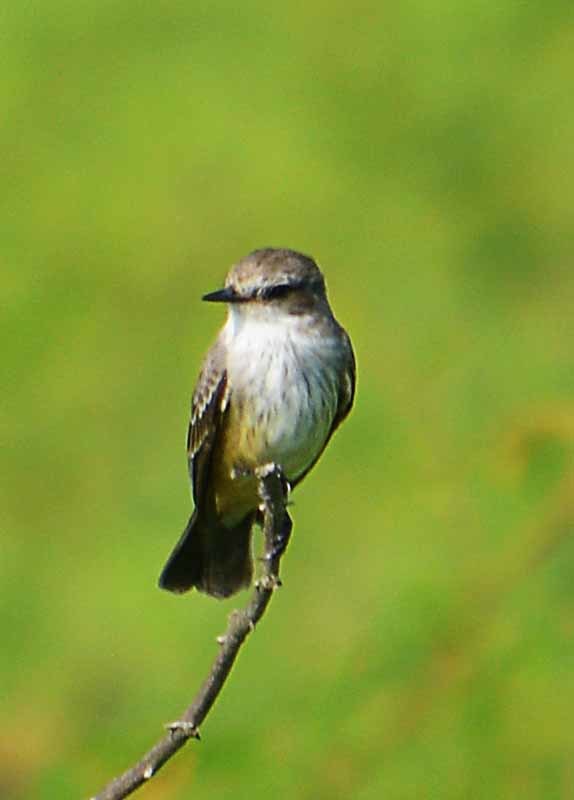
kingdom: Animalia
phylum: Chordata
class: Aves
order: Passeriformes
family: Tyrannidae
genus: Pyrocephalus
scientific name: Pyrocephalus rubinus
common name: Vermilion flycatcher
